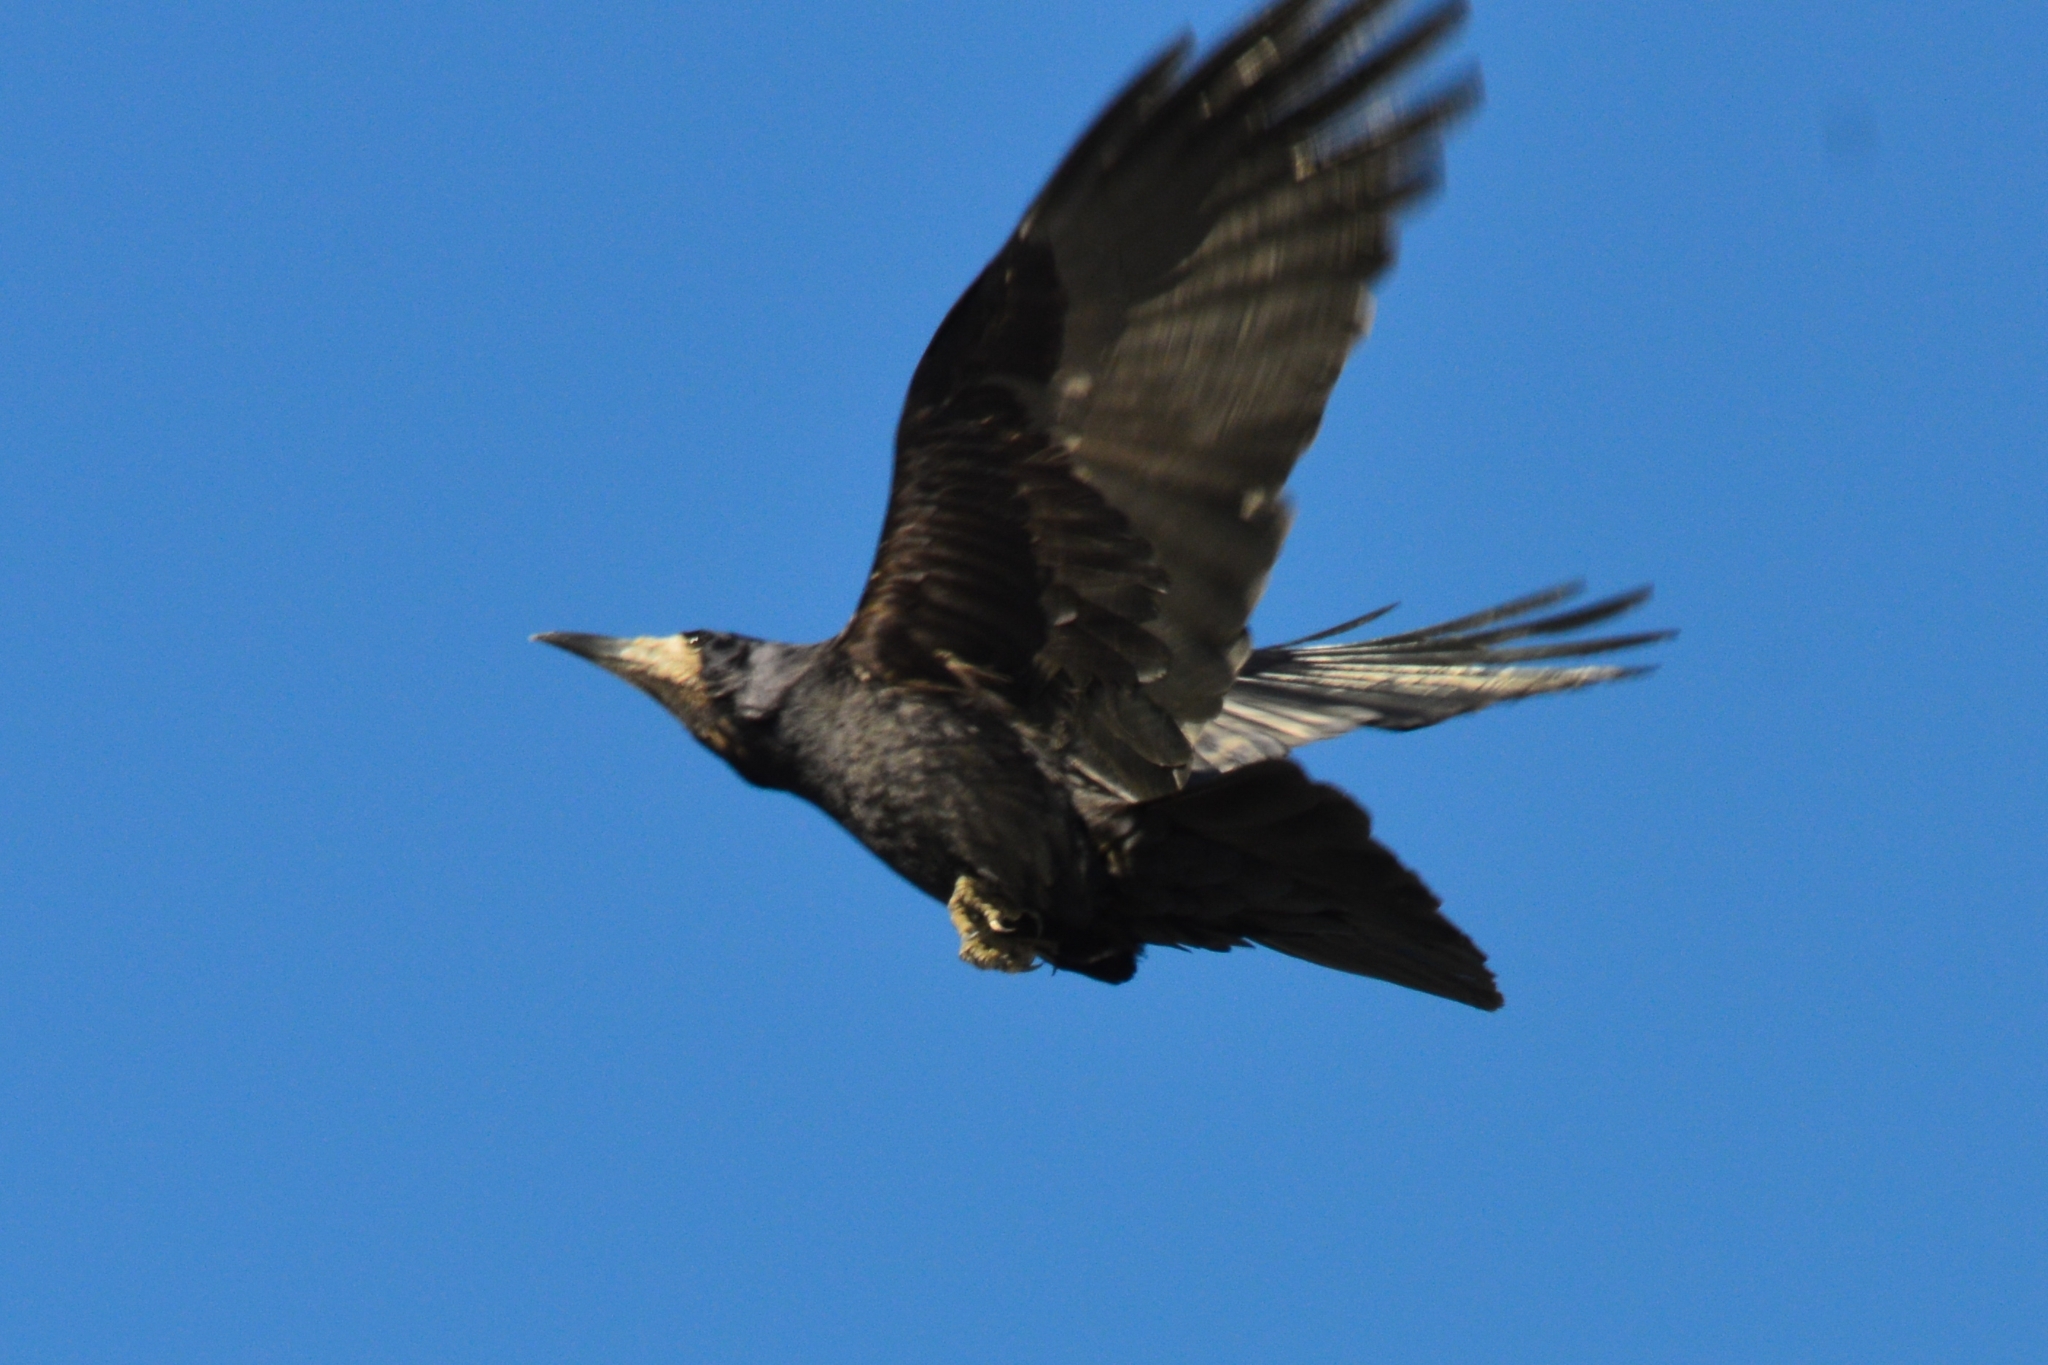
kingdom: Animalia
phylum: Chordata
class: Aves
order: Passeriformes
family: Corvidae
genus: Corvus
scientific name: Corvus frugilegus
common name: Rook
